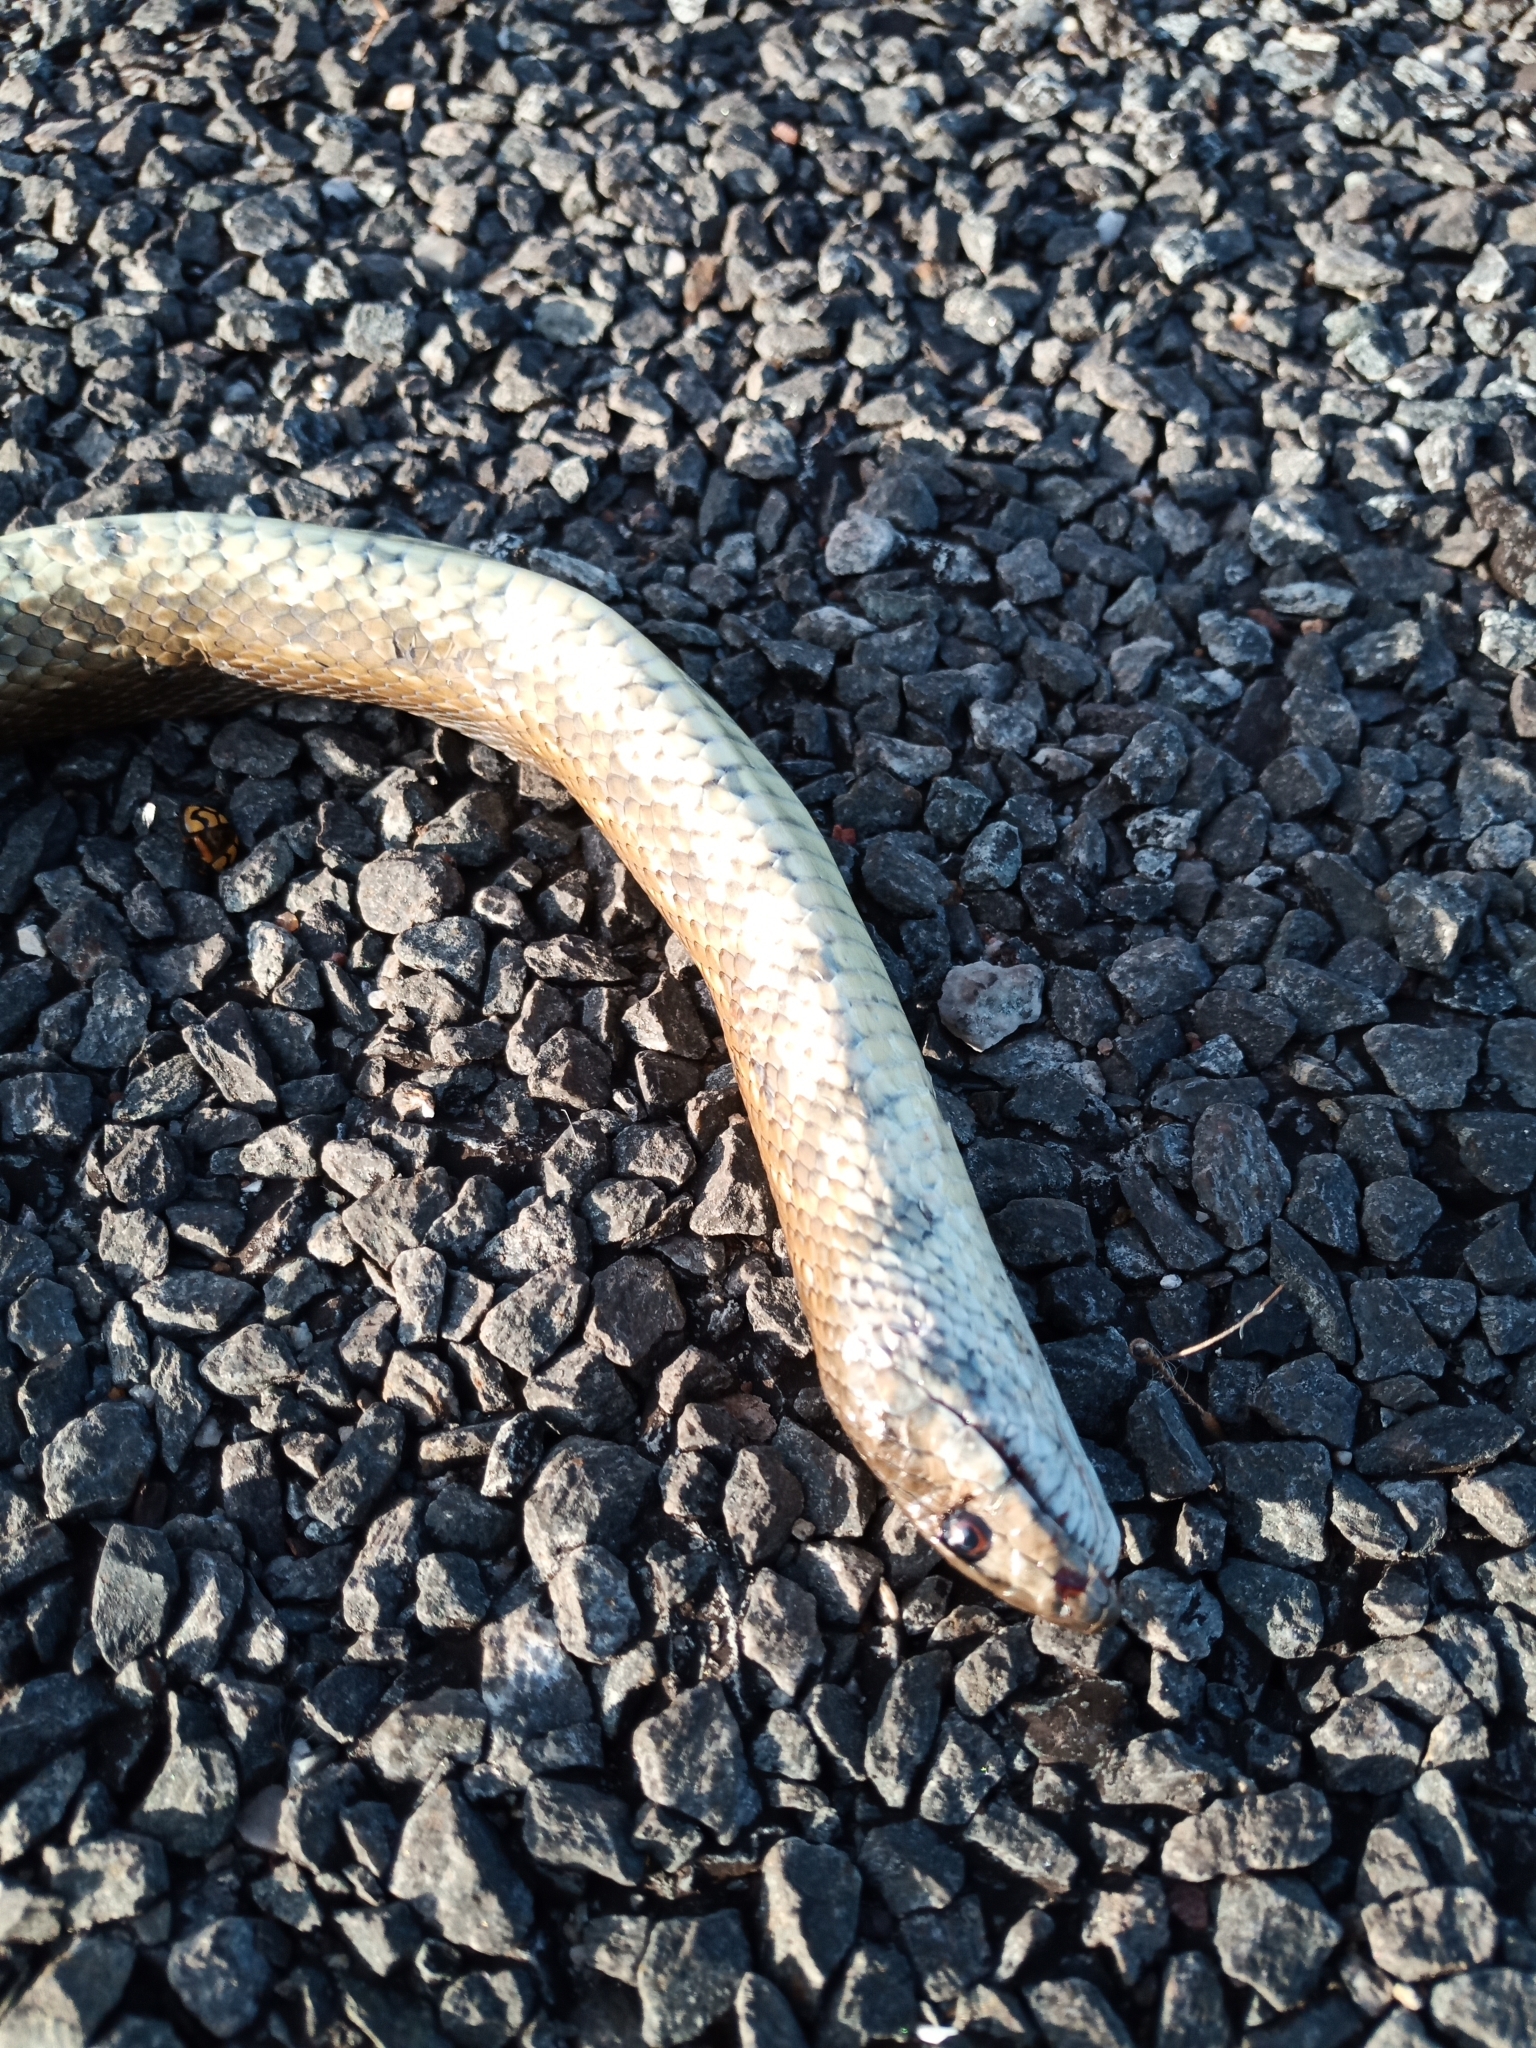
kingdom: Animalia
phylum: Chordata
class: Squamata
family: Pseudaspididae
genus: Pseudaspis
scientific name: Pseudaspis cana
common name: Mole snake
